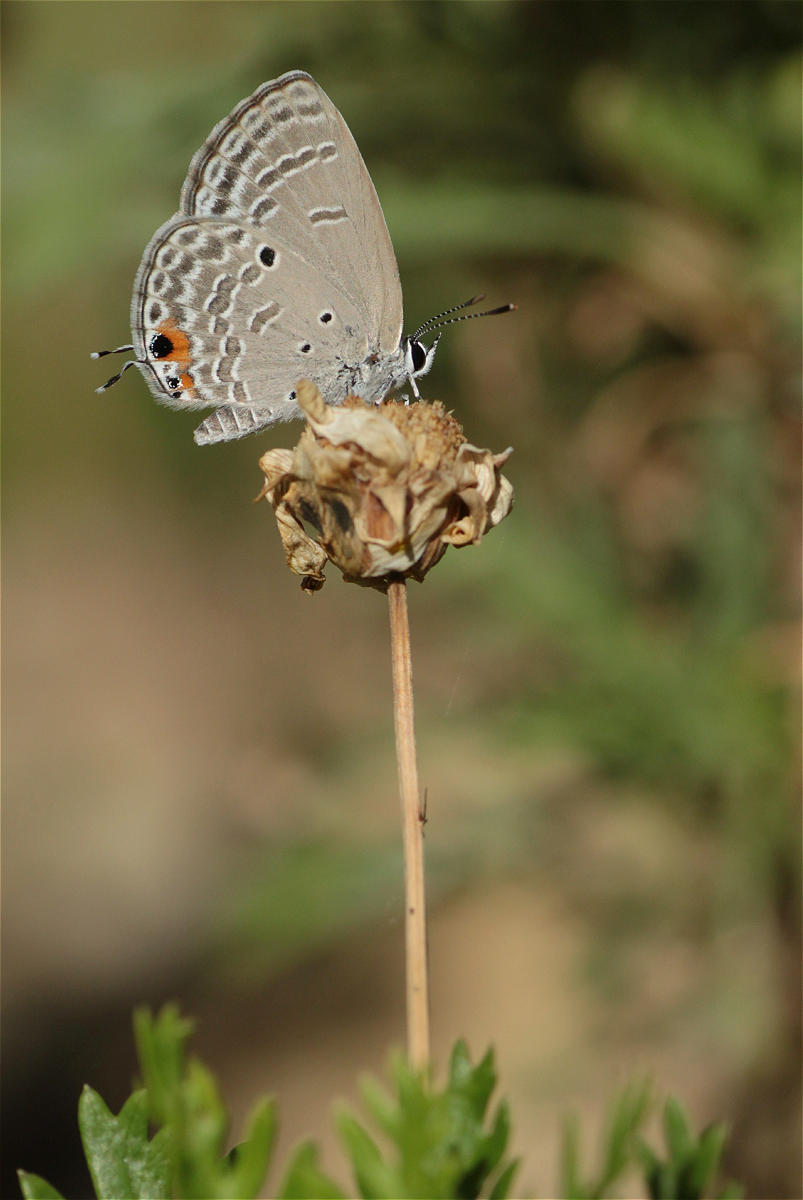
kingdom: Animalia
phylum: Arthropoda
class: Insecta
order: Lepidoptera
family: Lycaenidae
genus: Luthrodes
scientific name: Luthrodes pandava
